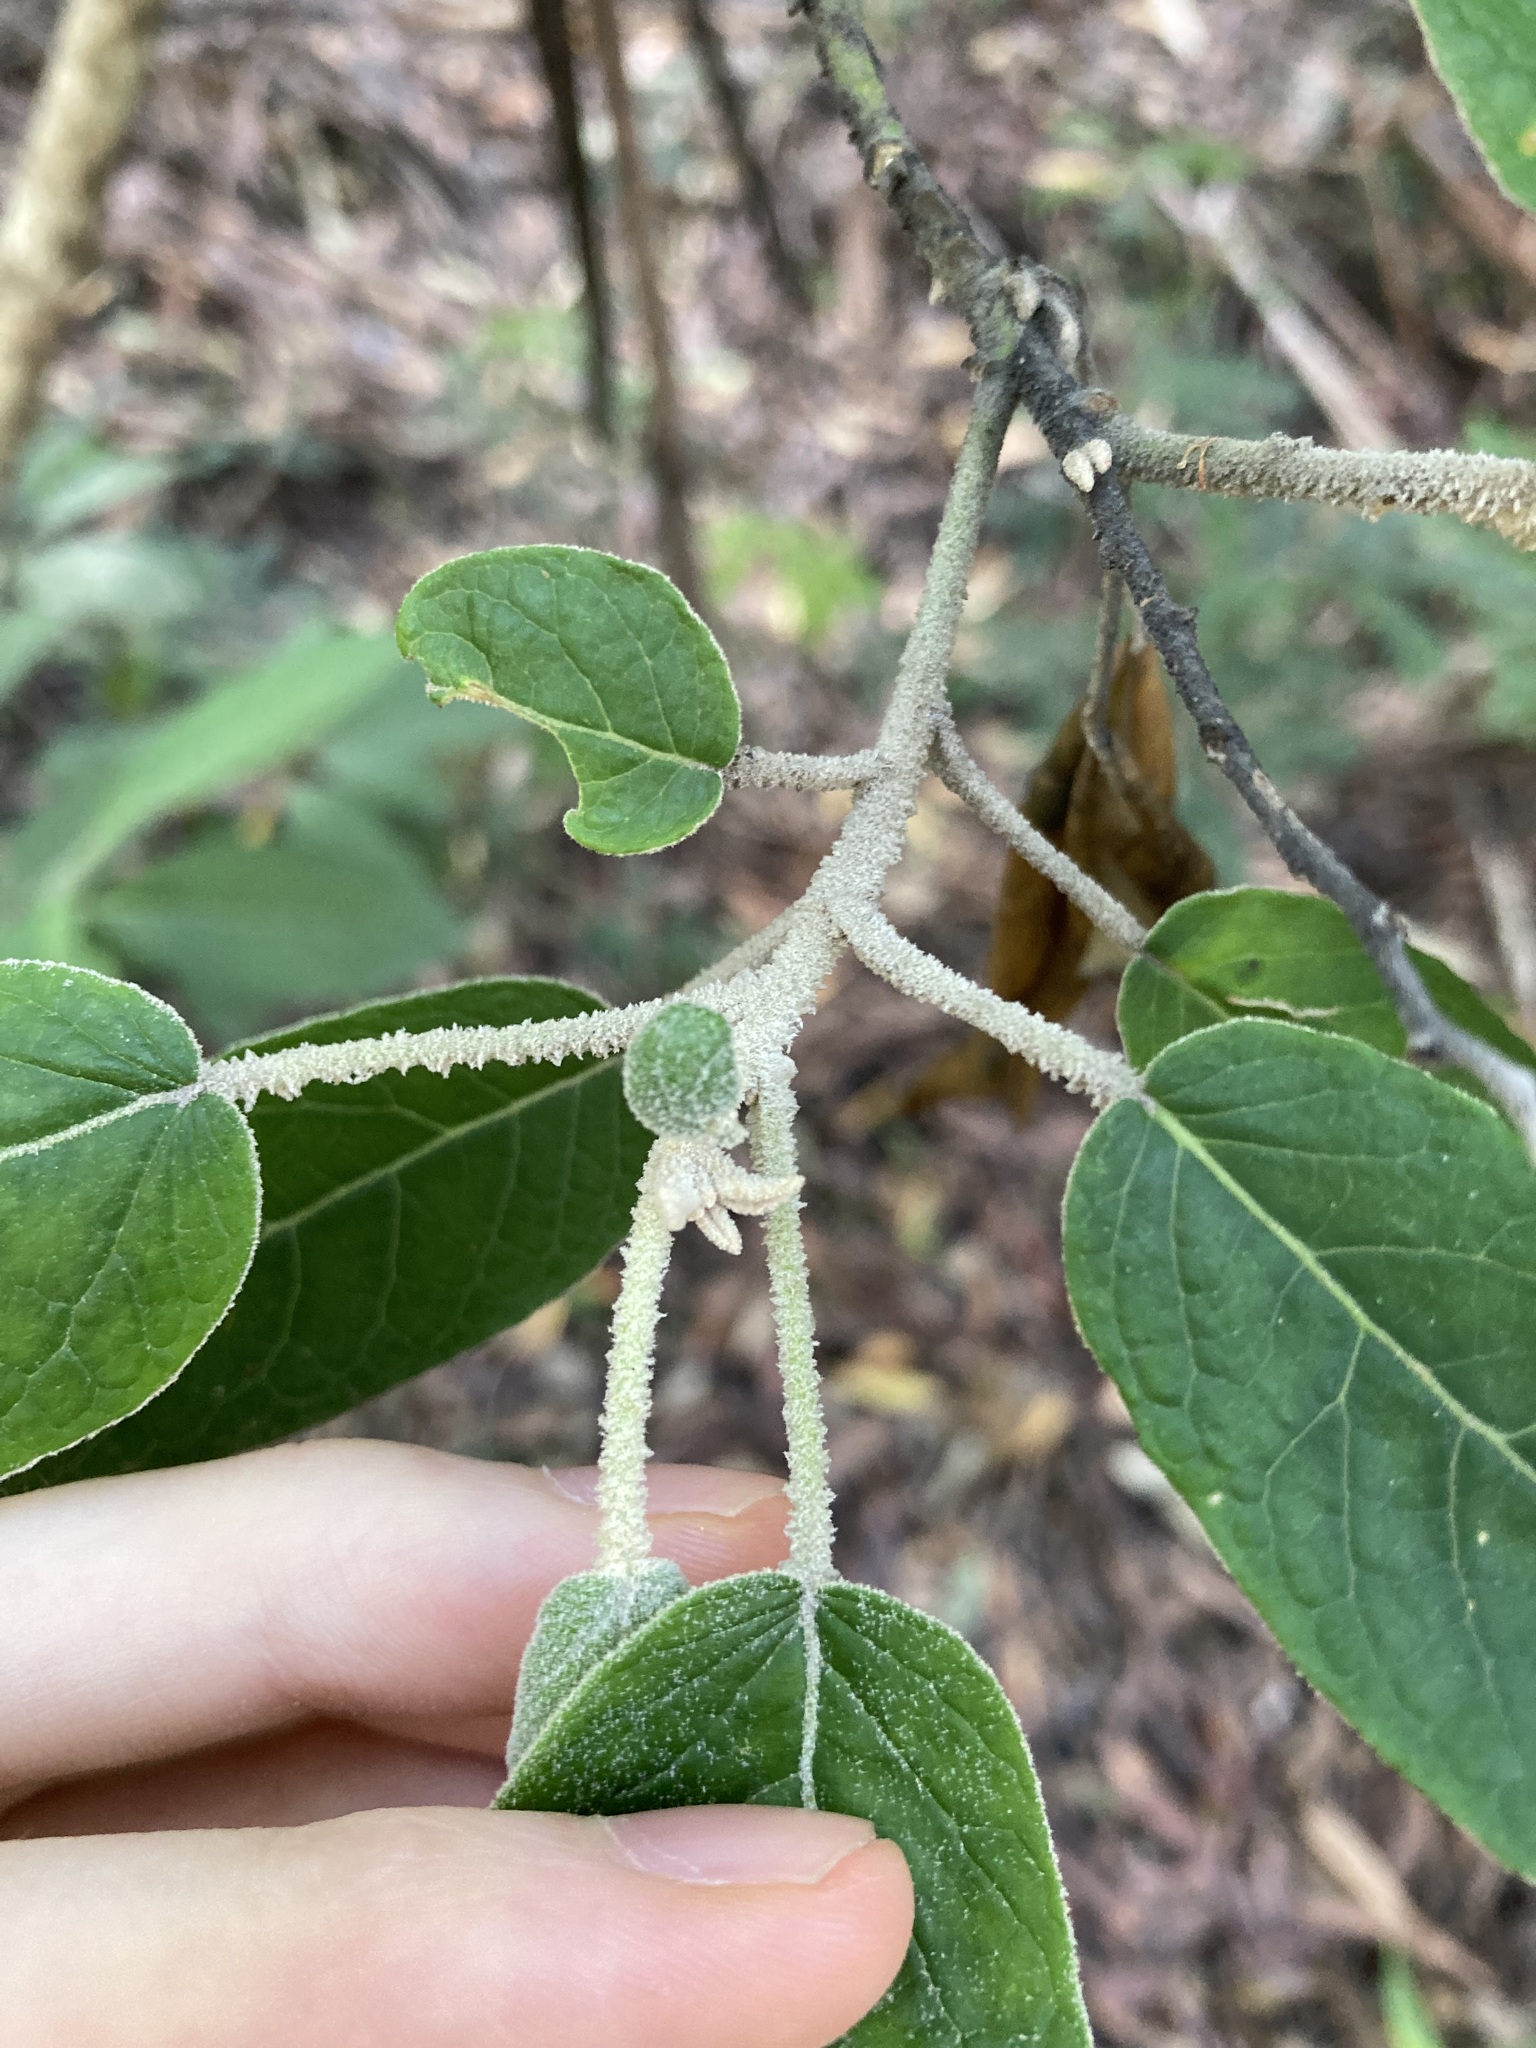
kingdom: Plantae
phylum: Tracheophyta
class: Magnoliopsida
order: Apiales
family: Araliaceae
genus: Astrotricha
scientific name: Astrotricha latifolia
